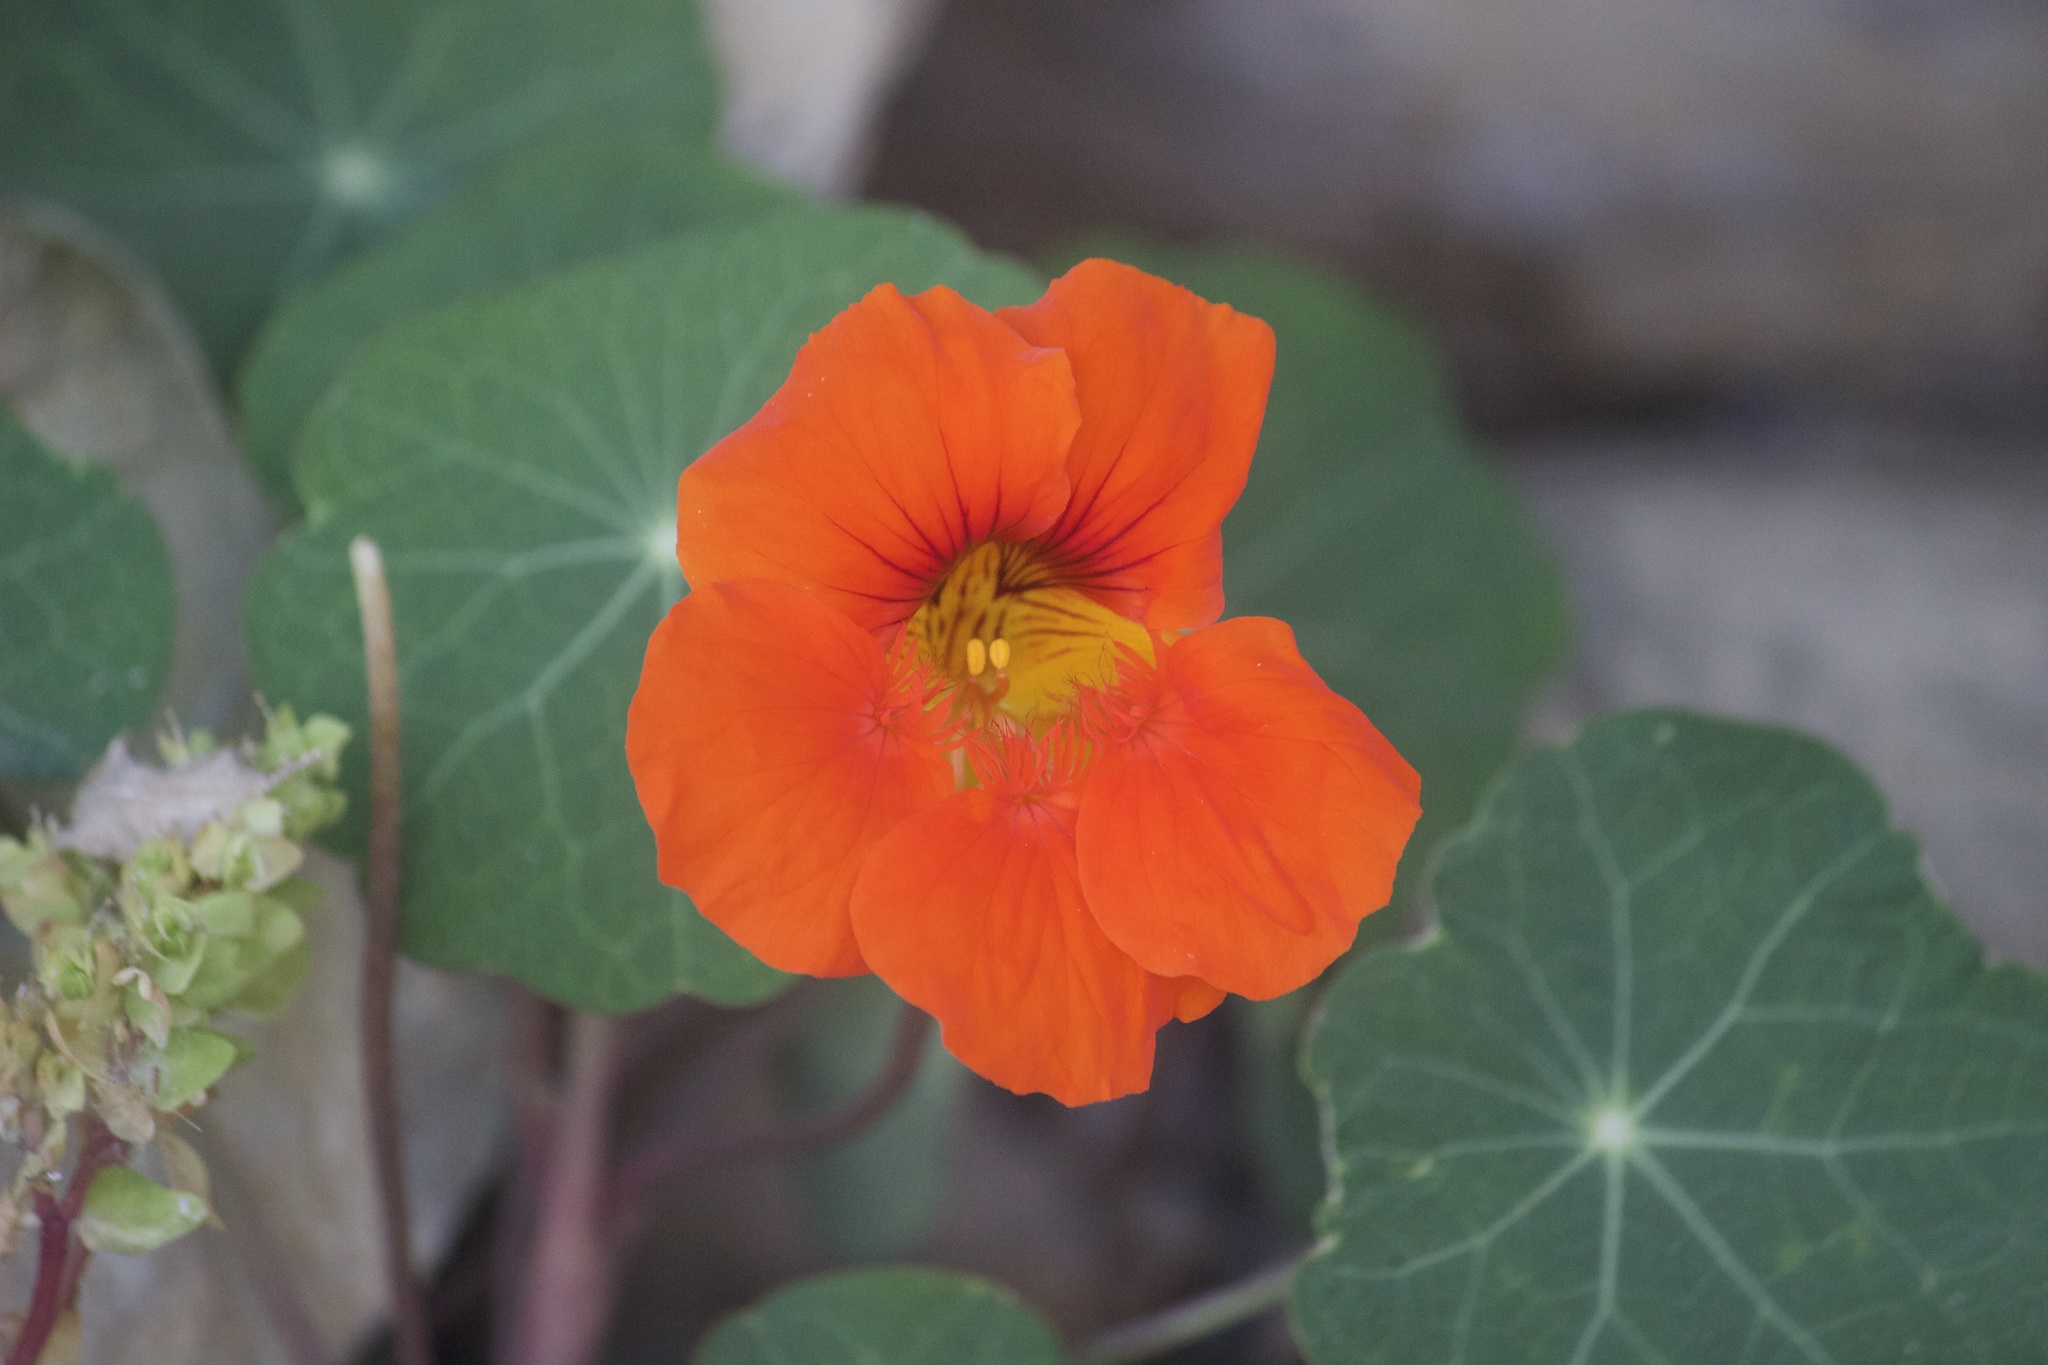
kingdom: Plantae
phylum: Tracheophyta
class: Magnoliopsida
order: Brassicales
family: Tropaeolaceae
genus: Tropaeolum
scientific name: Tropaeolum majus
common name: Nasturtium
